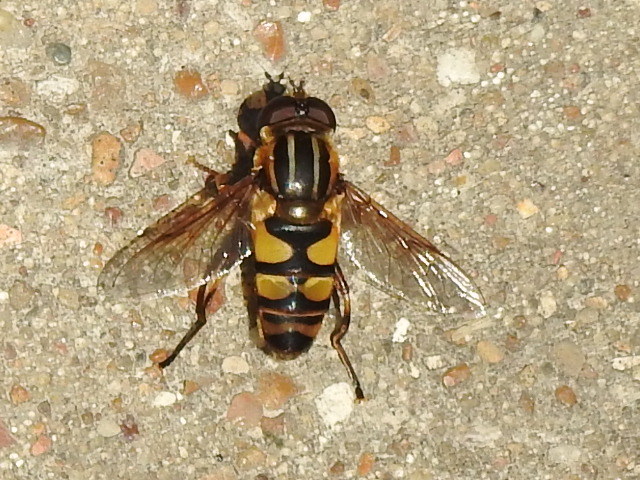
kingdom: Animalia
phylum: Arthropoda
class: Insecta
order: Diptera
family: Syrphidae
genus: Helophilus
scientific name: Helophilus fasciatus
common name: Narrow-headed marsh fly
